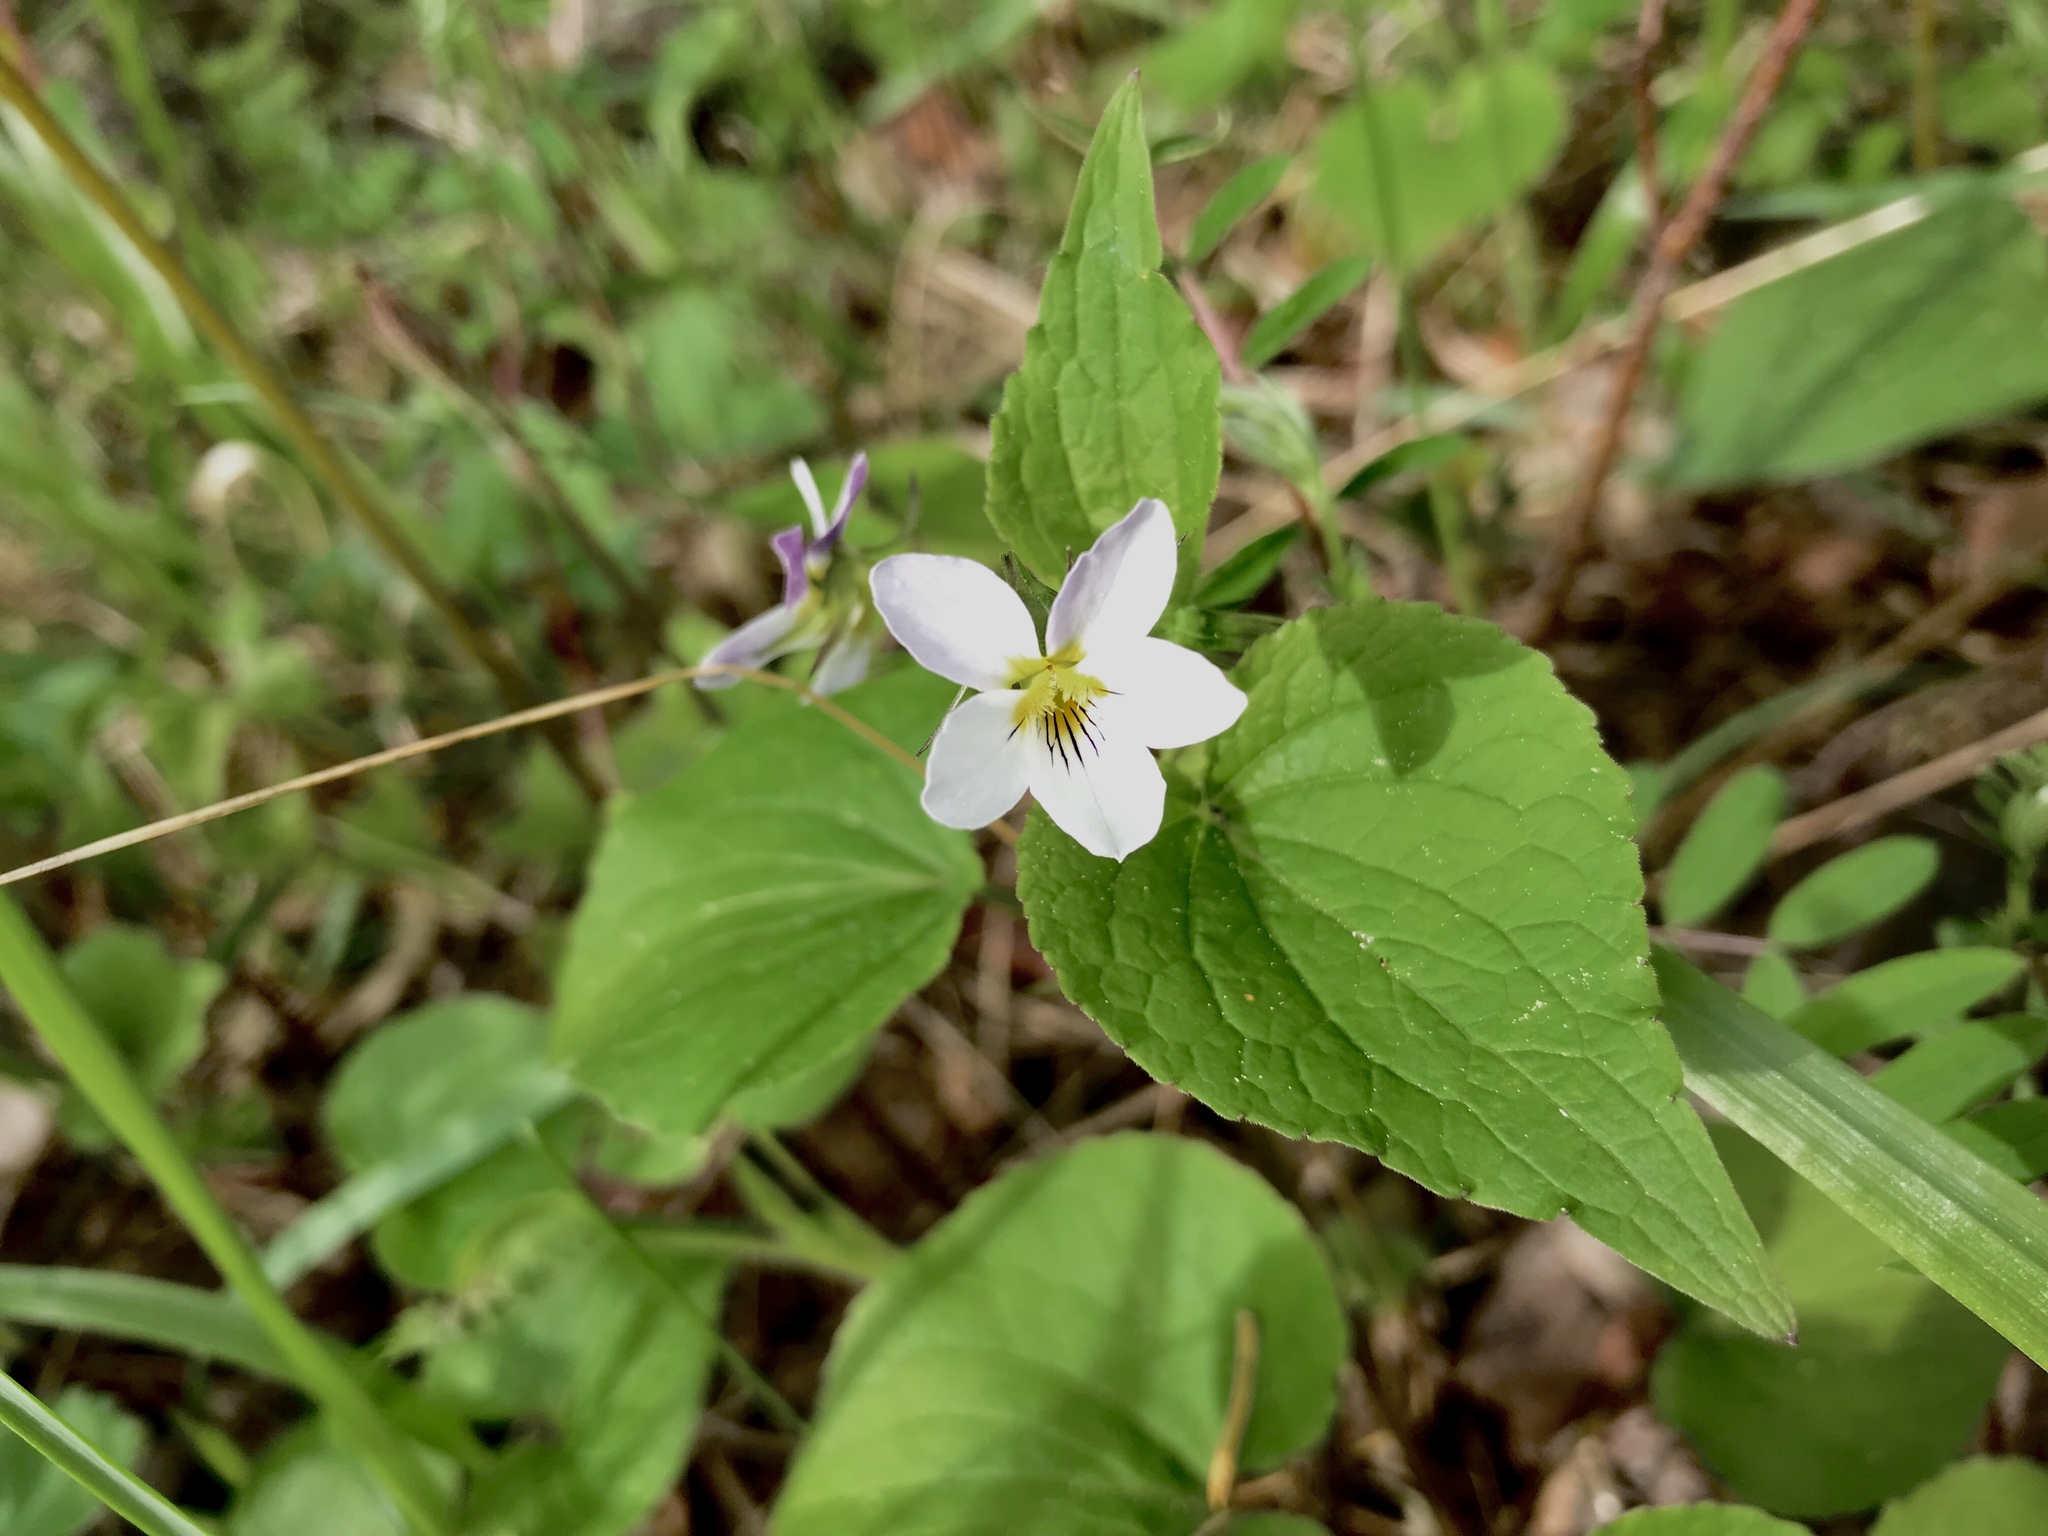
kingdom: Plantae
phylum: Tracheophyta
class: Magnoliopsida
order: Malpighiales
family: Violaceae
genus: Viola
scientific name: Viola canadensis
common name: Canada violet
